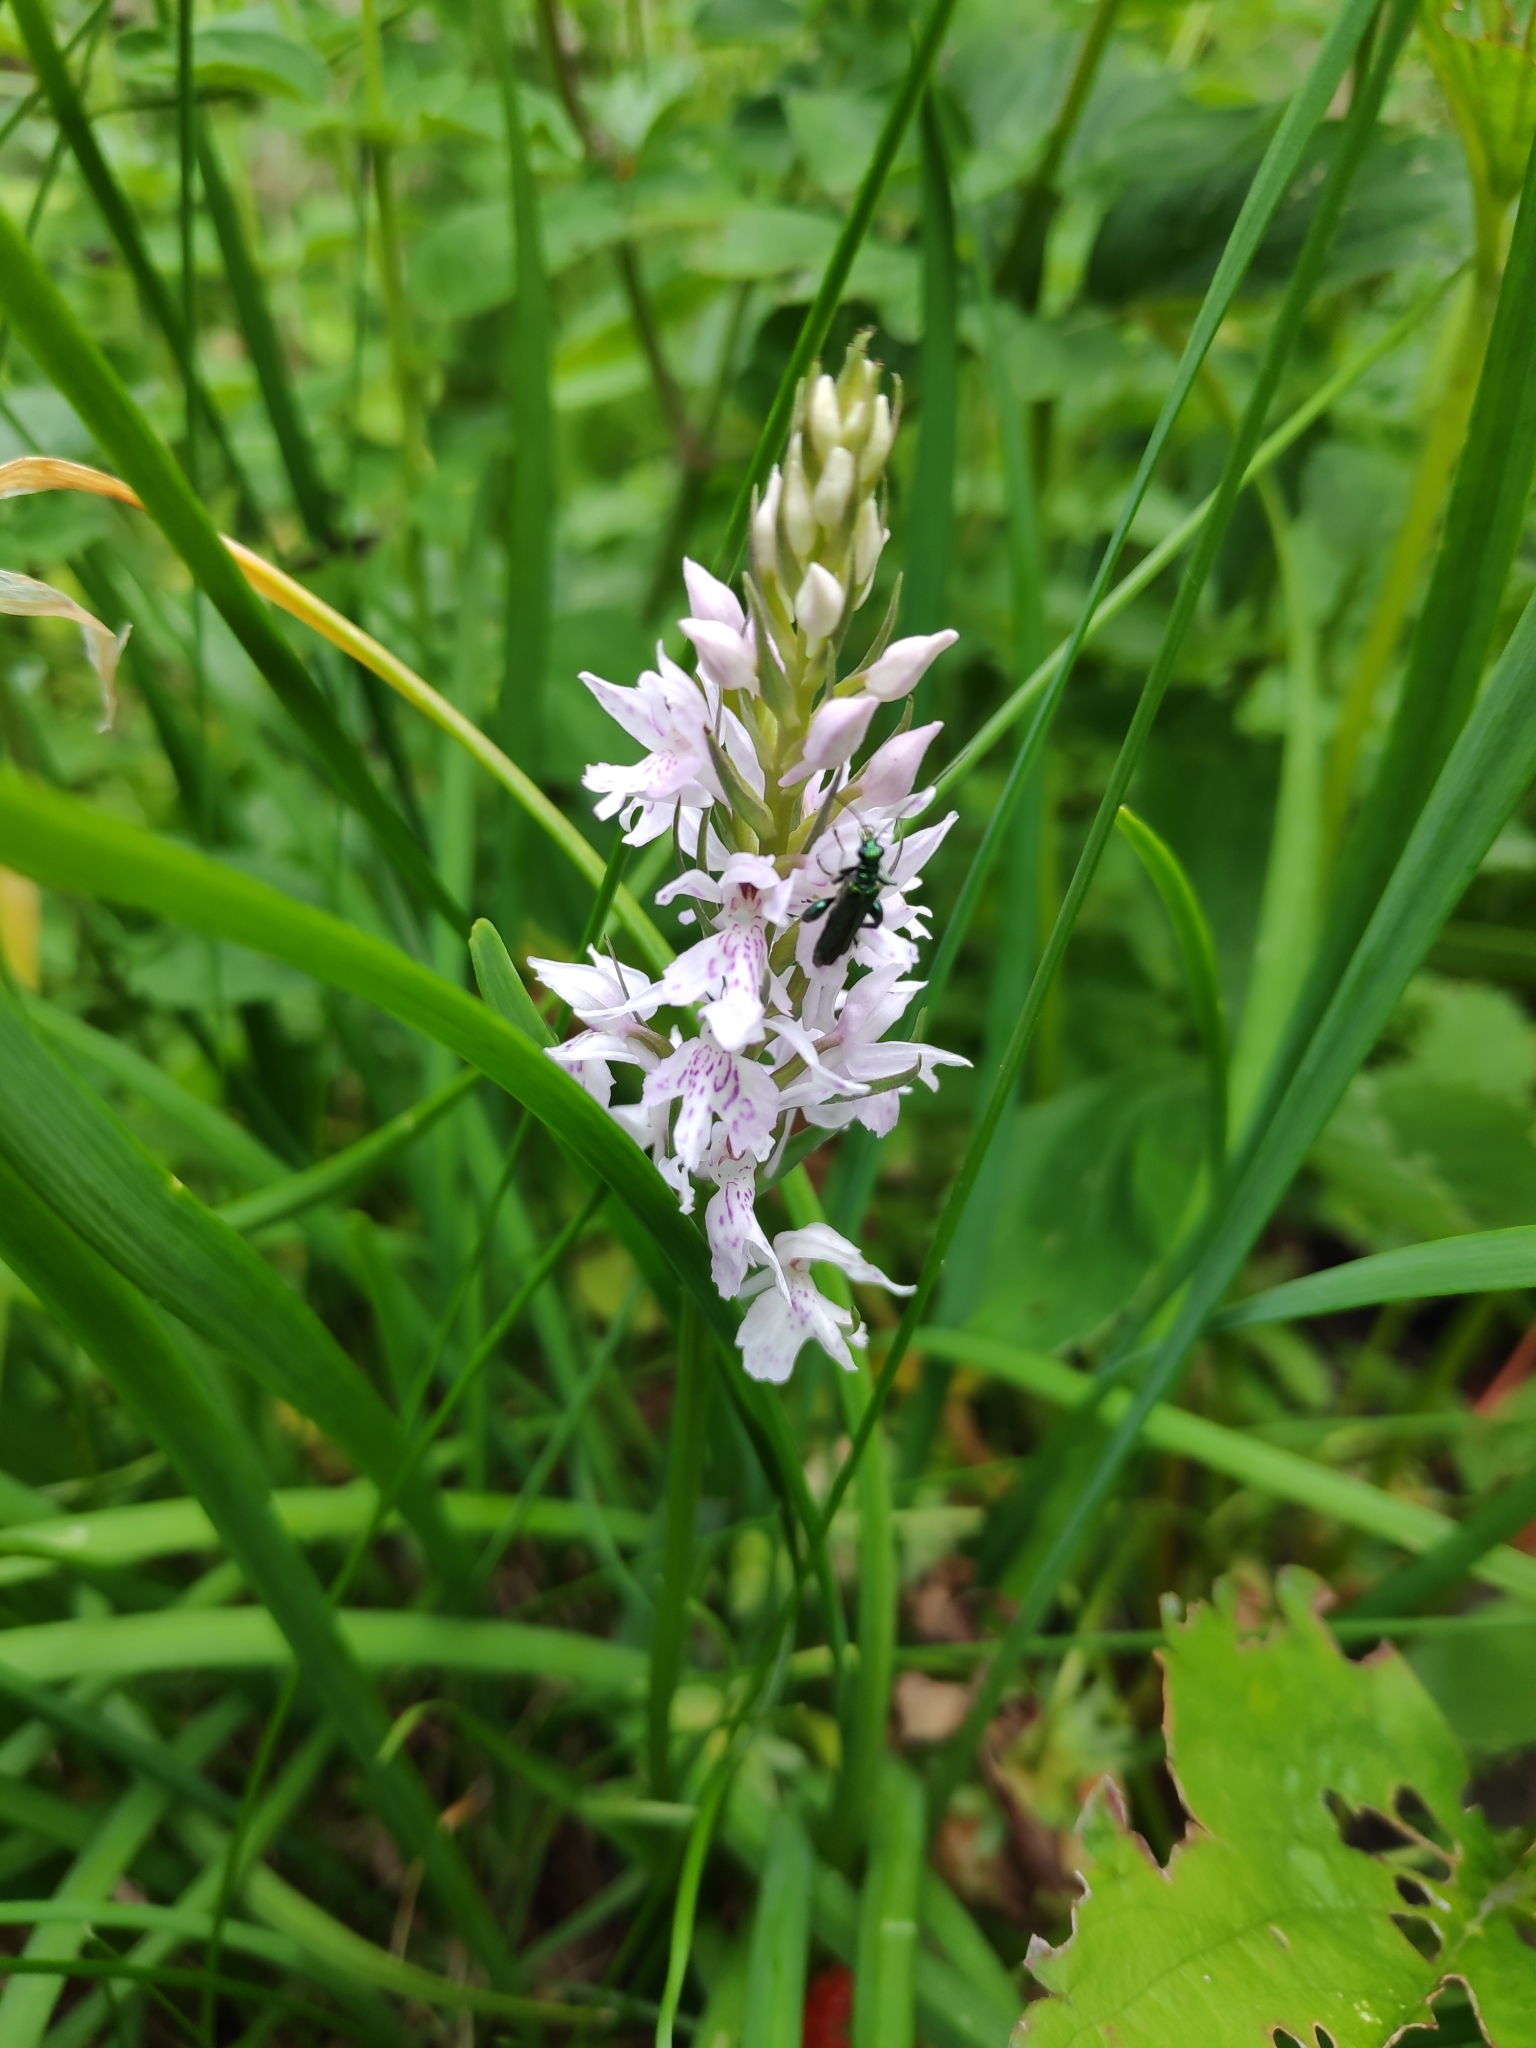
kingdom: Plantae
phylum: Tracheophyta
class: Liliopsida
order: Asparagales
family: Orchidaceae
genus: Dactylorhiza
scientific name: Dactylorhiza maculata
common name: Heath spotted-orchid
